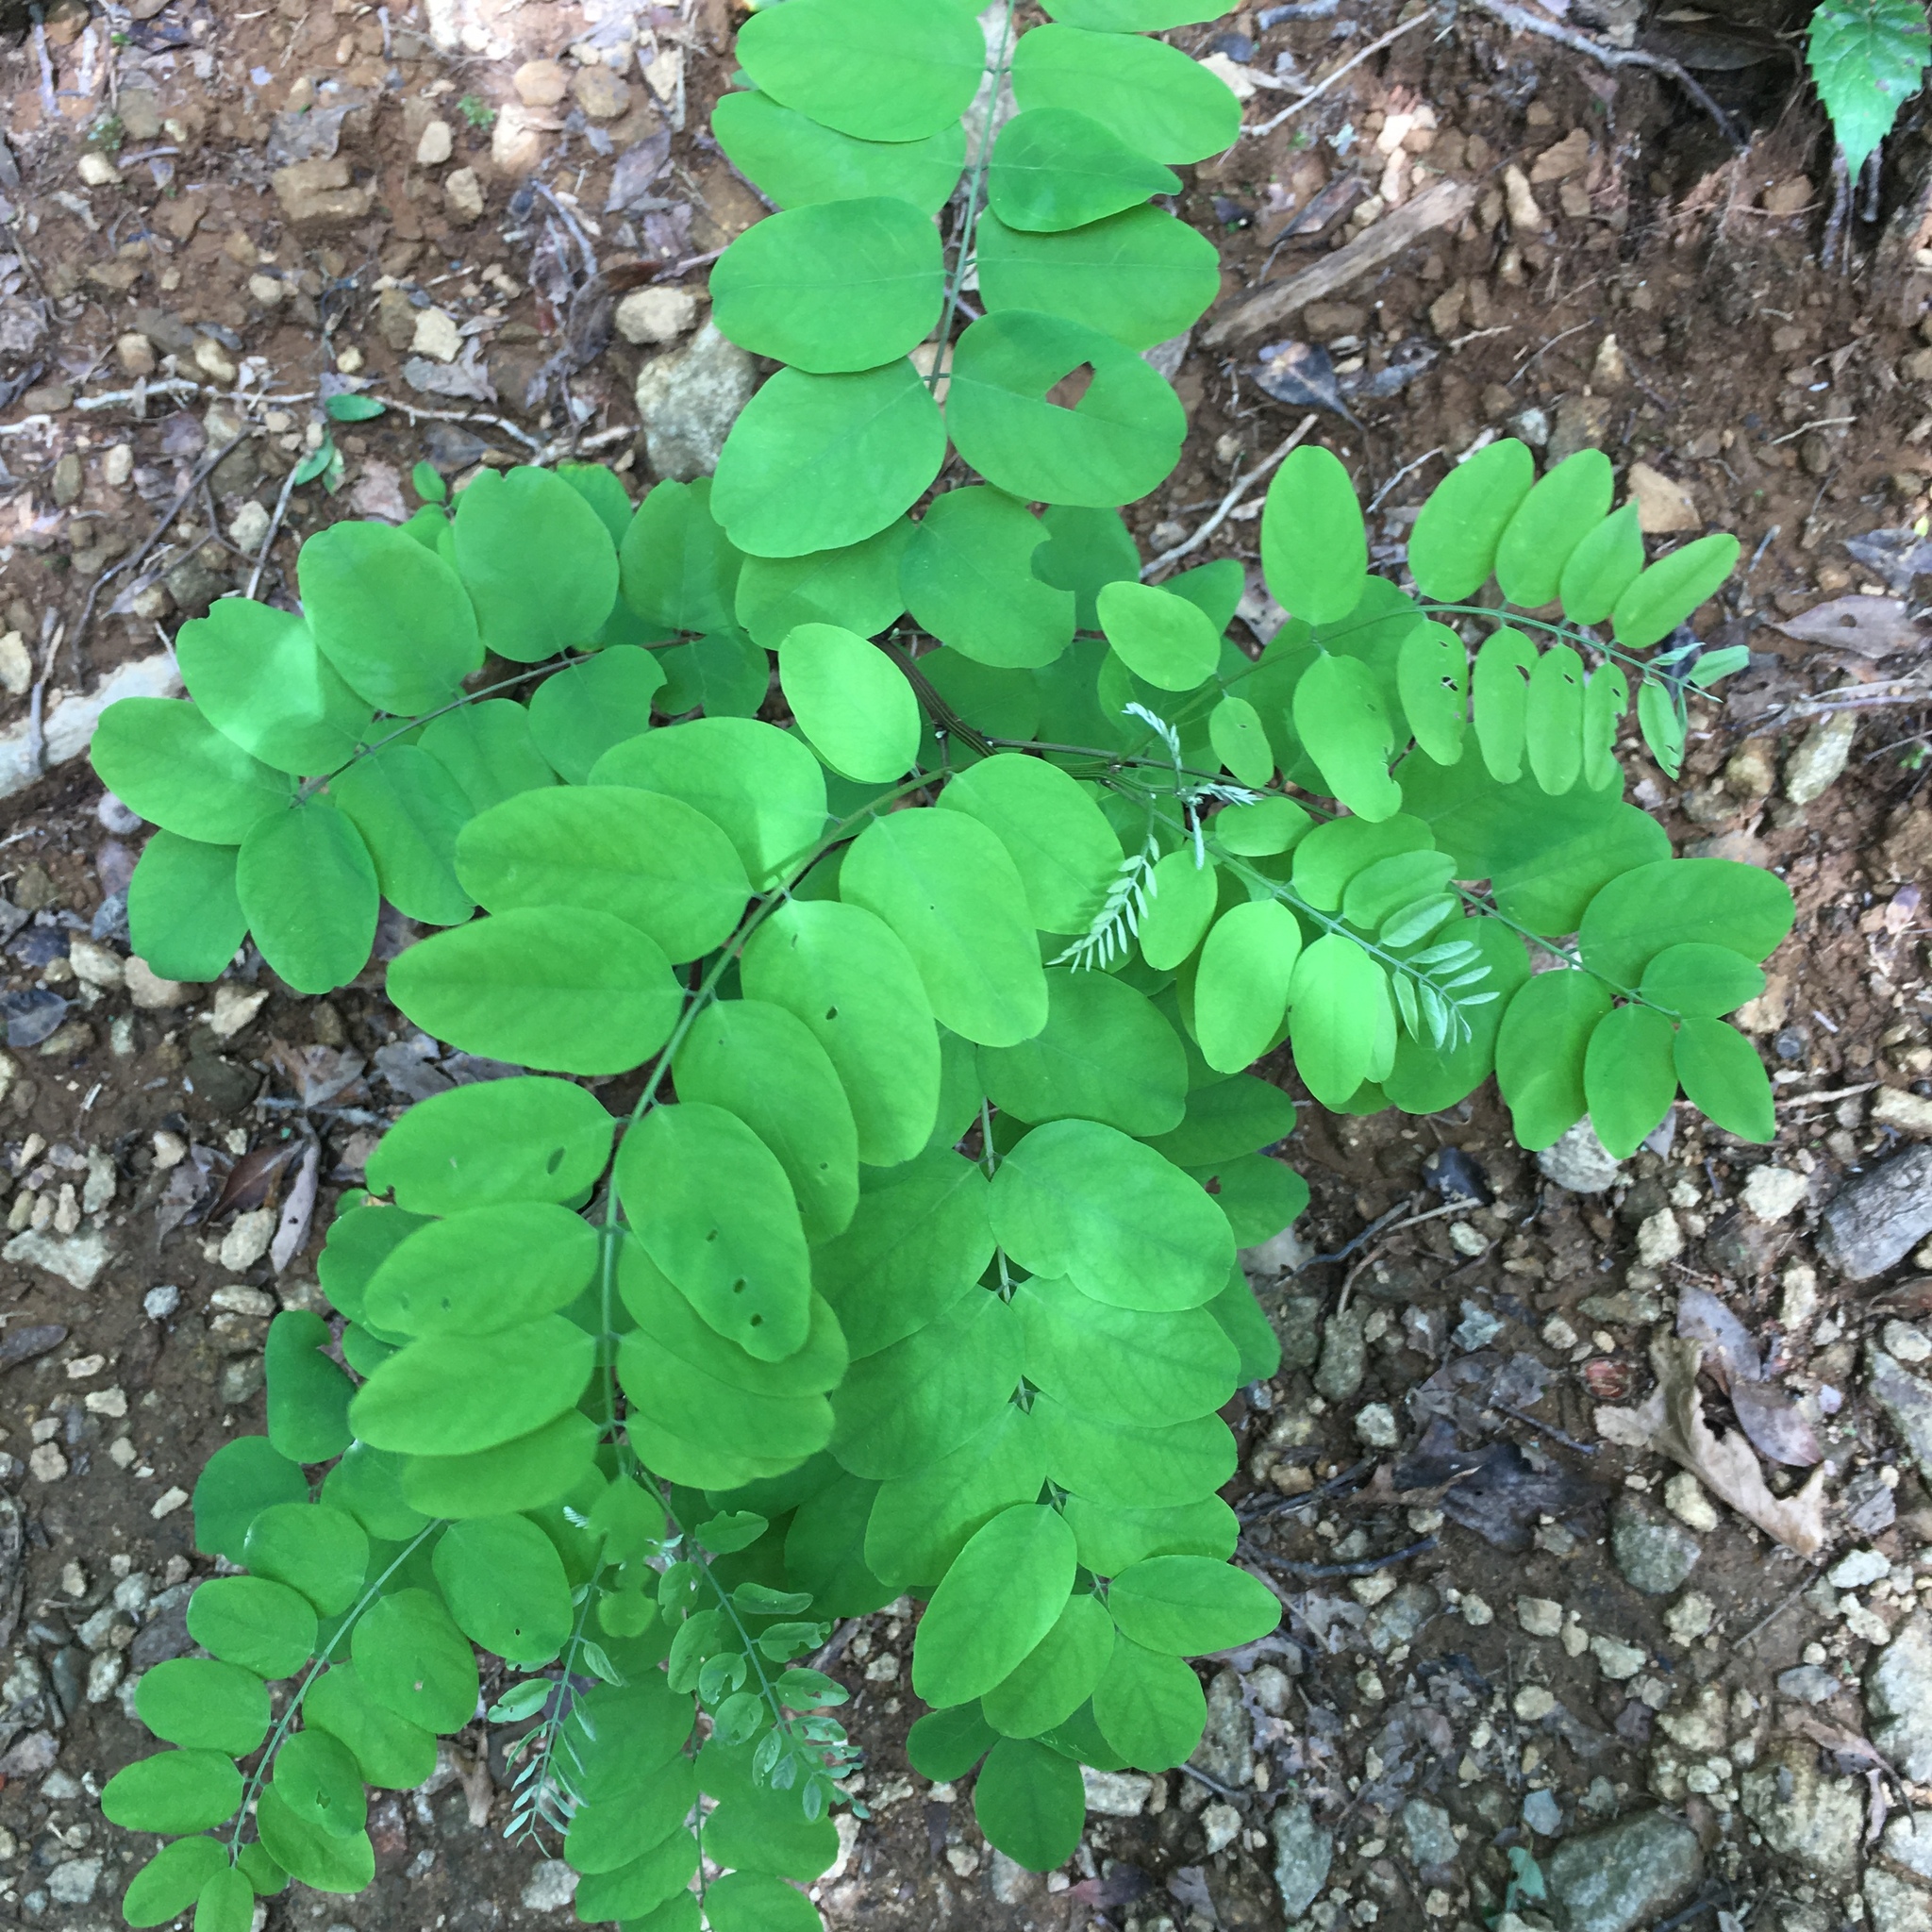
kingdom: Plantae
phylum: Tracheophyta
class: Magnoliopsida
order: Fabales
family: Fabaceae
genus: Robinia
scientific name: Robinia pseudoacacia
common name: Black locust
